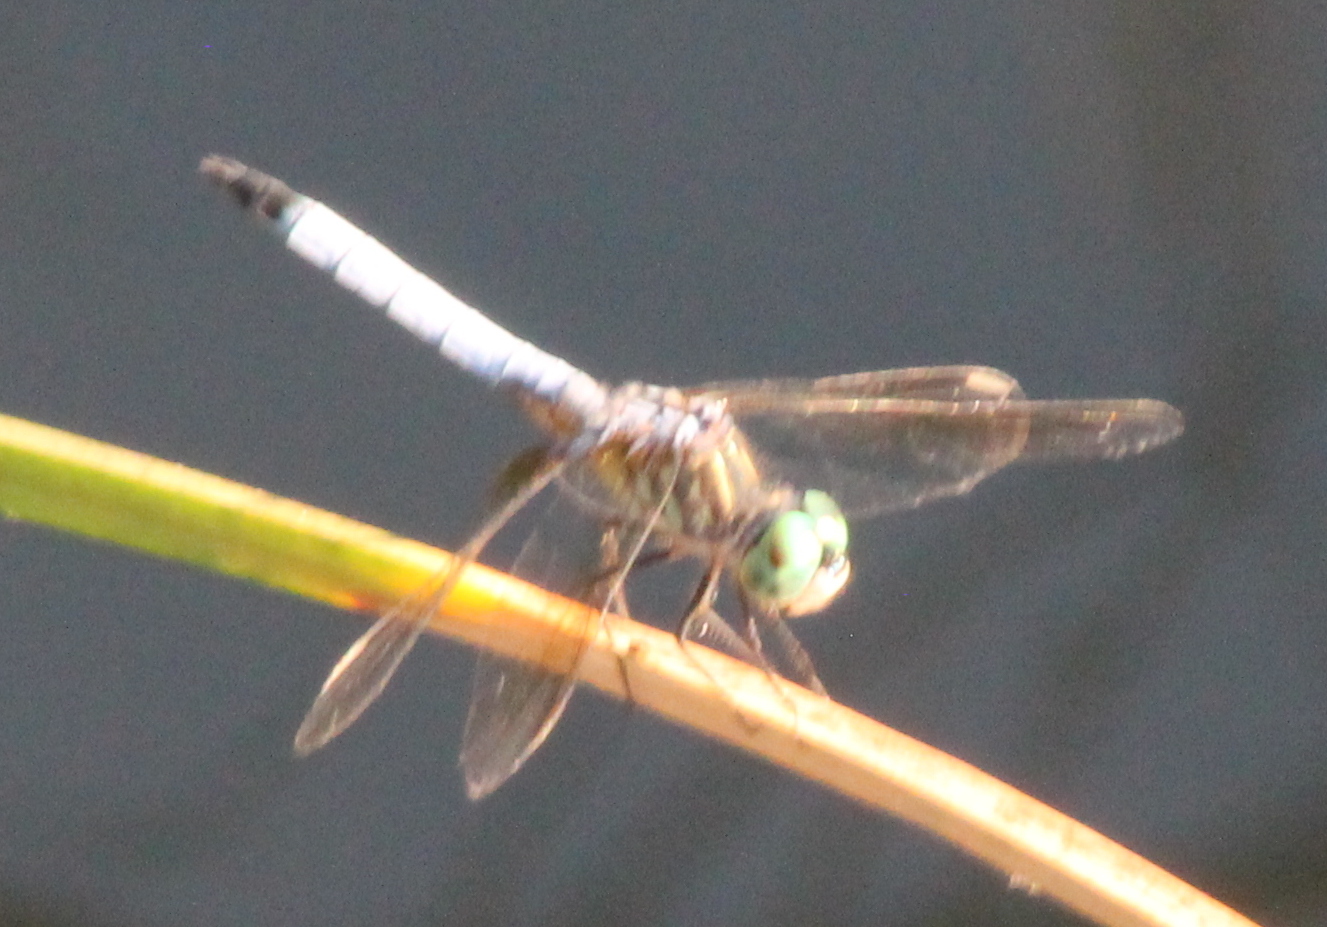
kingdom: Animalia
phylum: Arthropoda
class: Insecta
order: Odonata
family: Libellulidae
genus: Pachydiplax
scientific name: Pachydiplax longipennis
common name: Blue dasher
